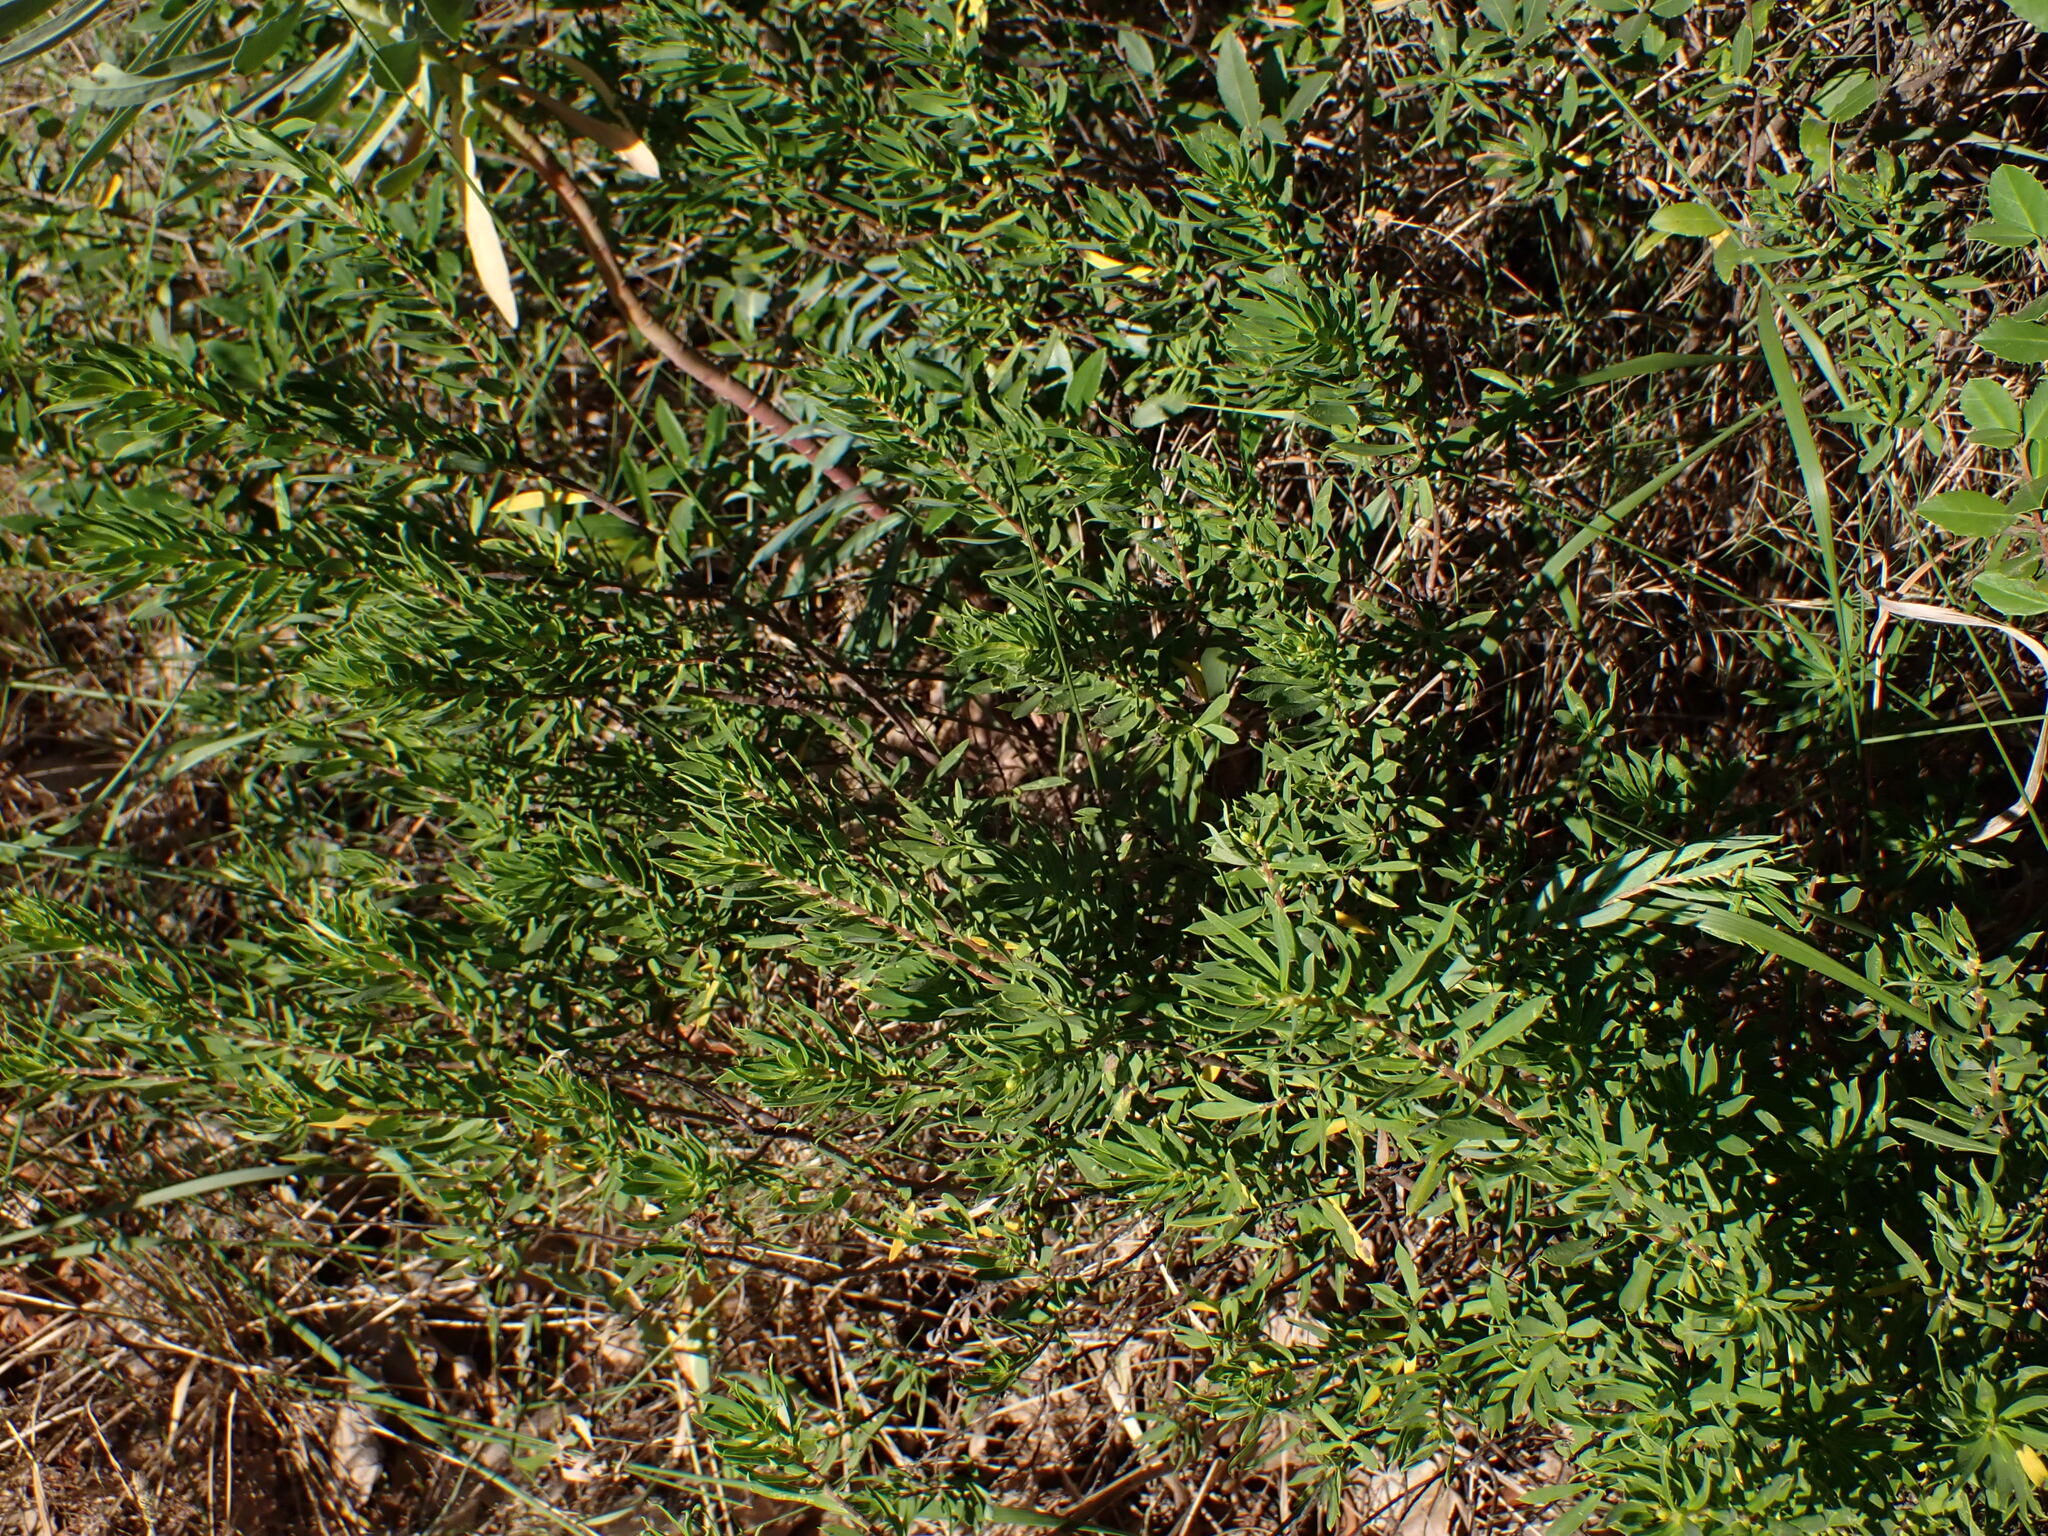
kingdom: Plantae
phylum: Tracheophyta
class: Magnoliopsida
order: Malvales
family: Thymelaeaceae
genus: Daphne
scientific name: Daphne gnidium
